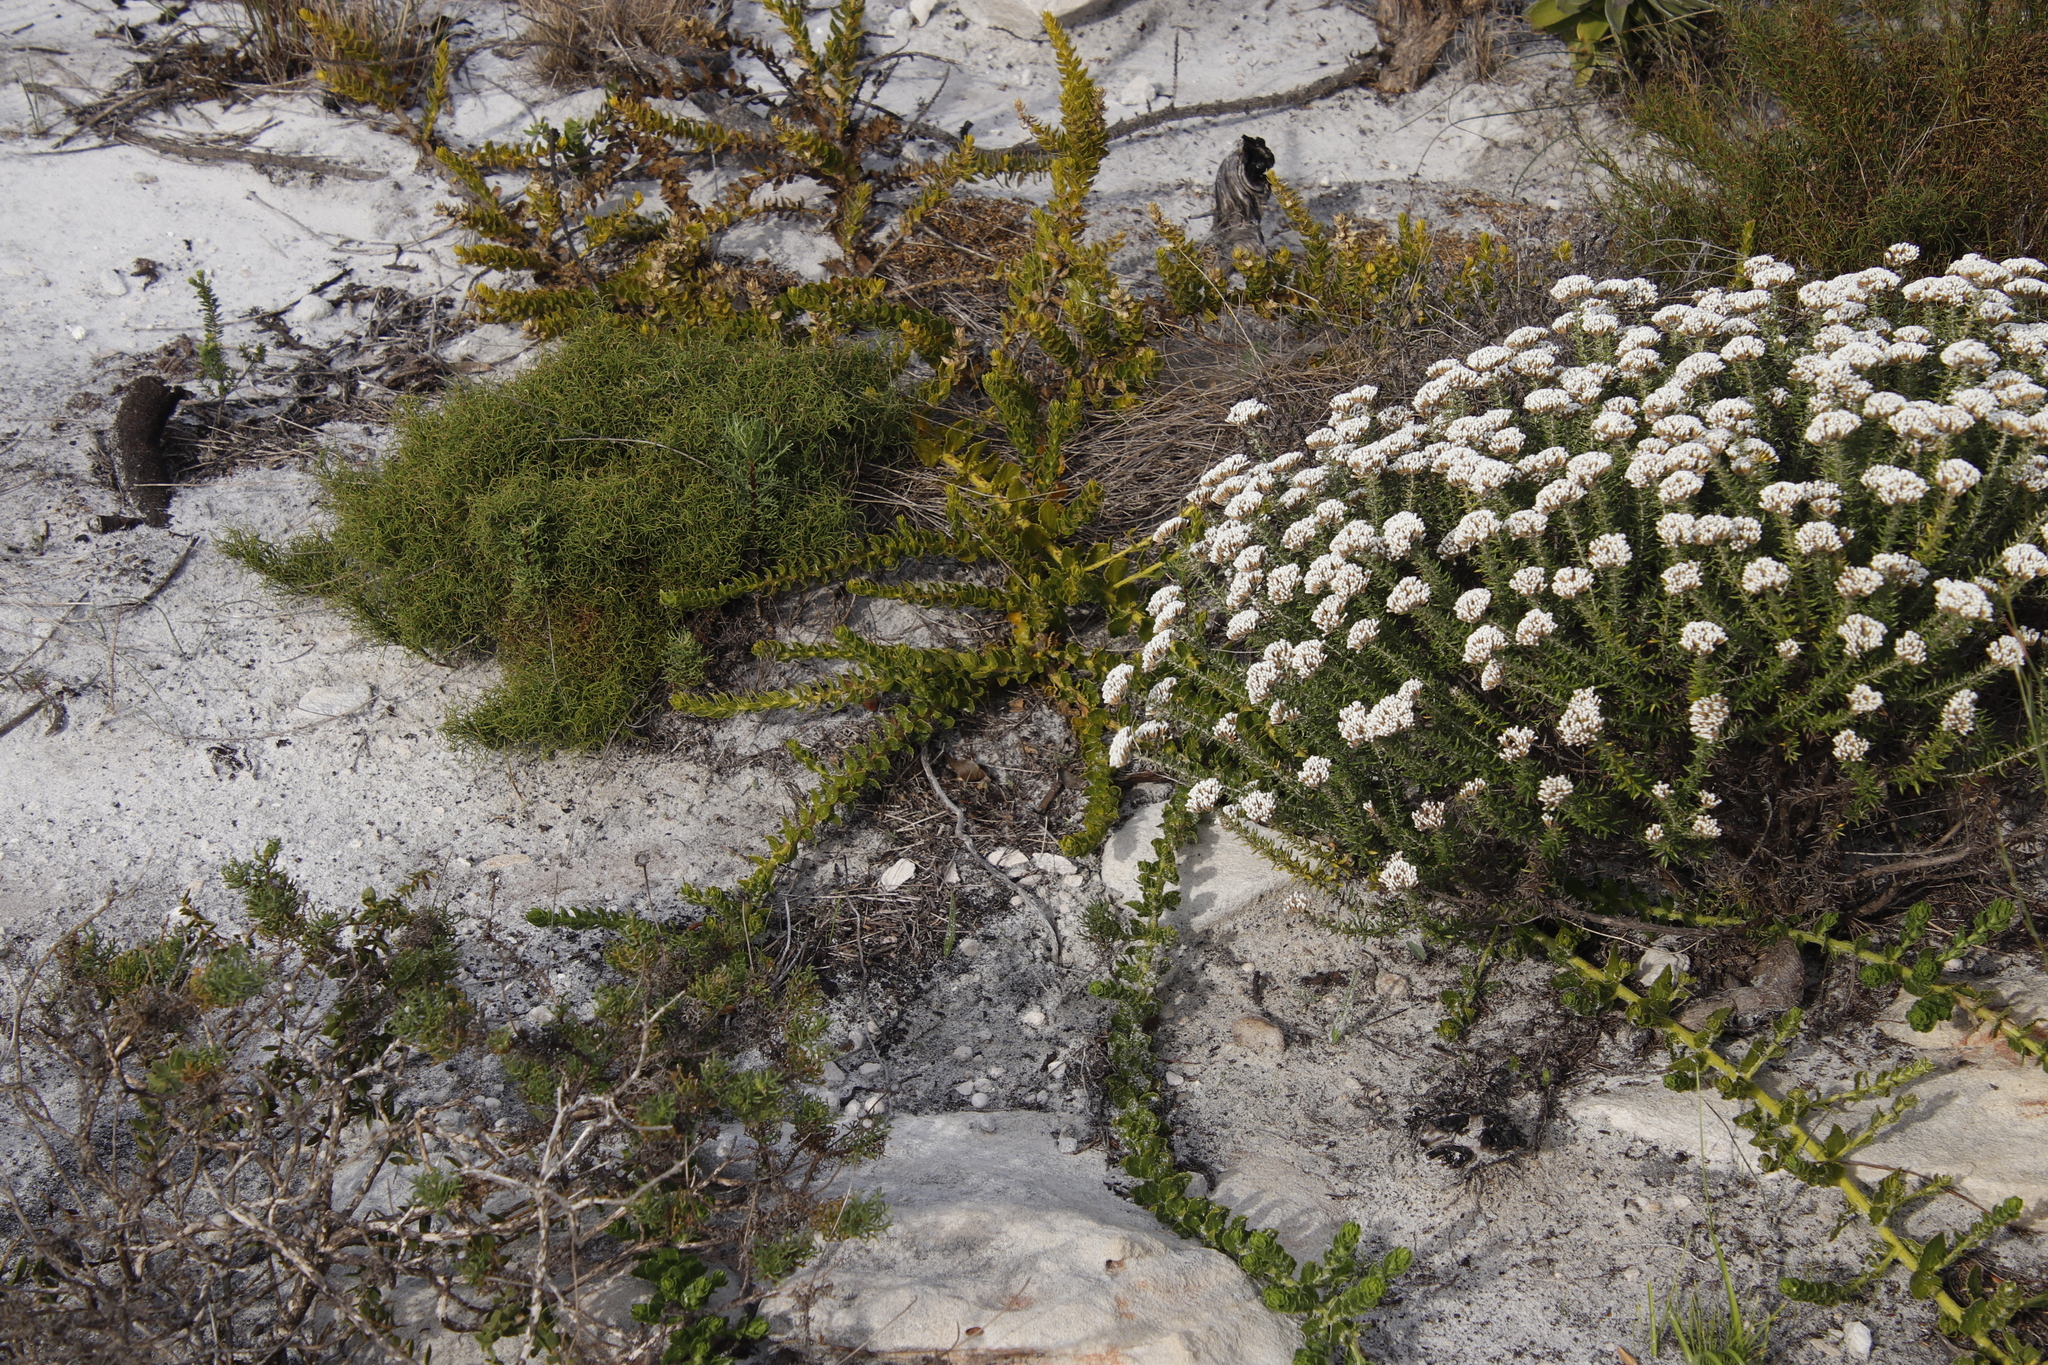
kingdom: Plantae
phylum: Tracheophyta
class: Magnoliopsida
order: Lamiales
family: Scrophulariaceae
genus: Oftia
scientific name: Oftia africana
